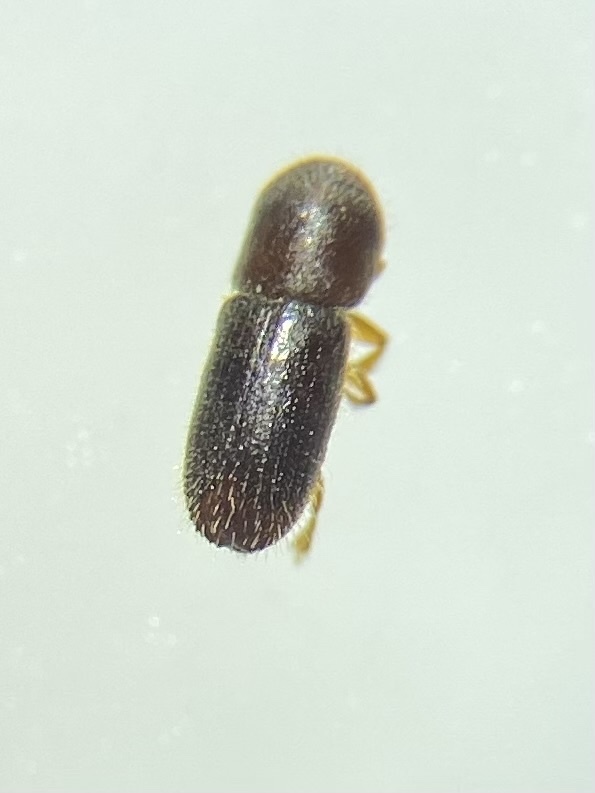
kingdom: Animalia
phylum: Arthropoda
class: Insecta
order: Coleoptera
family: Curculionidae
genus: Xyleborinus
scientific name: Xyleborinus saxesenii
